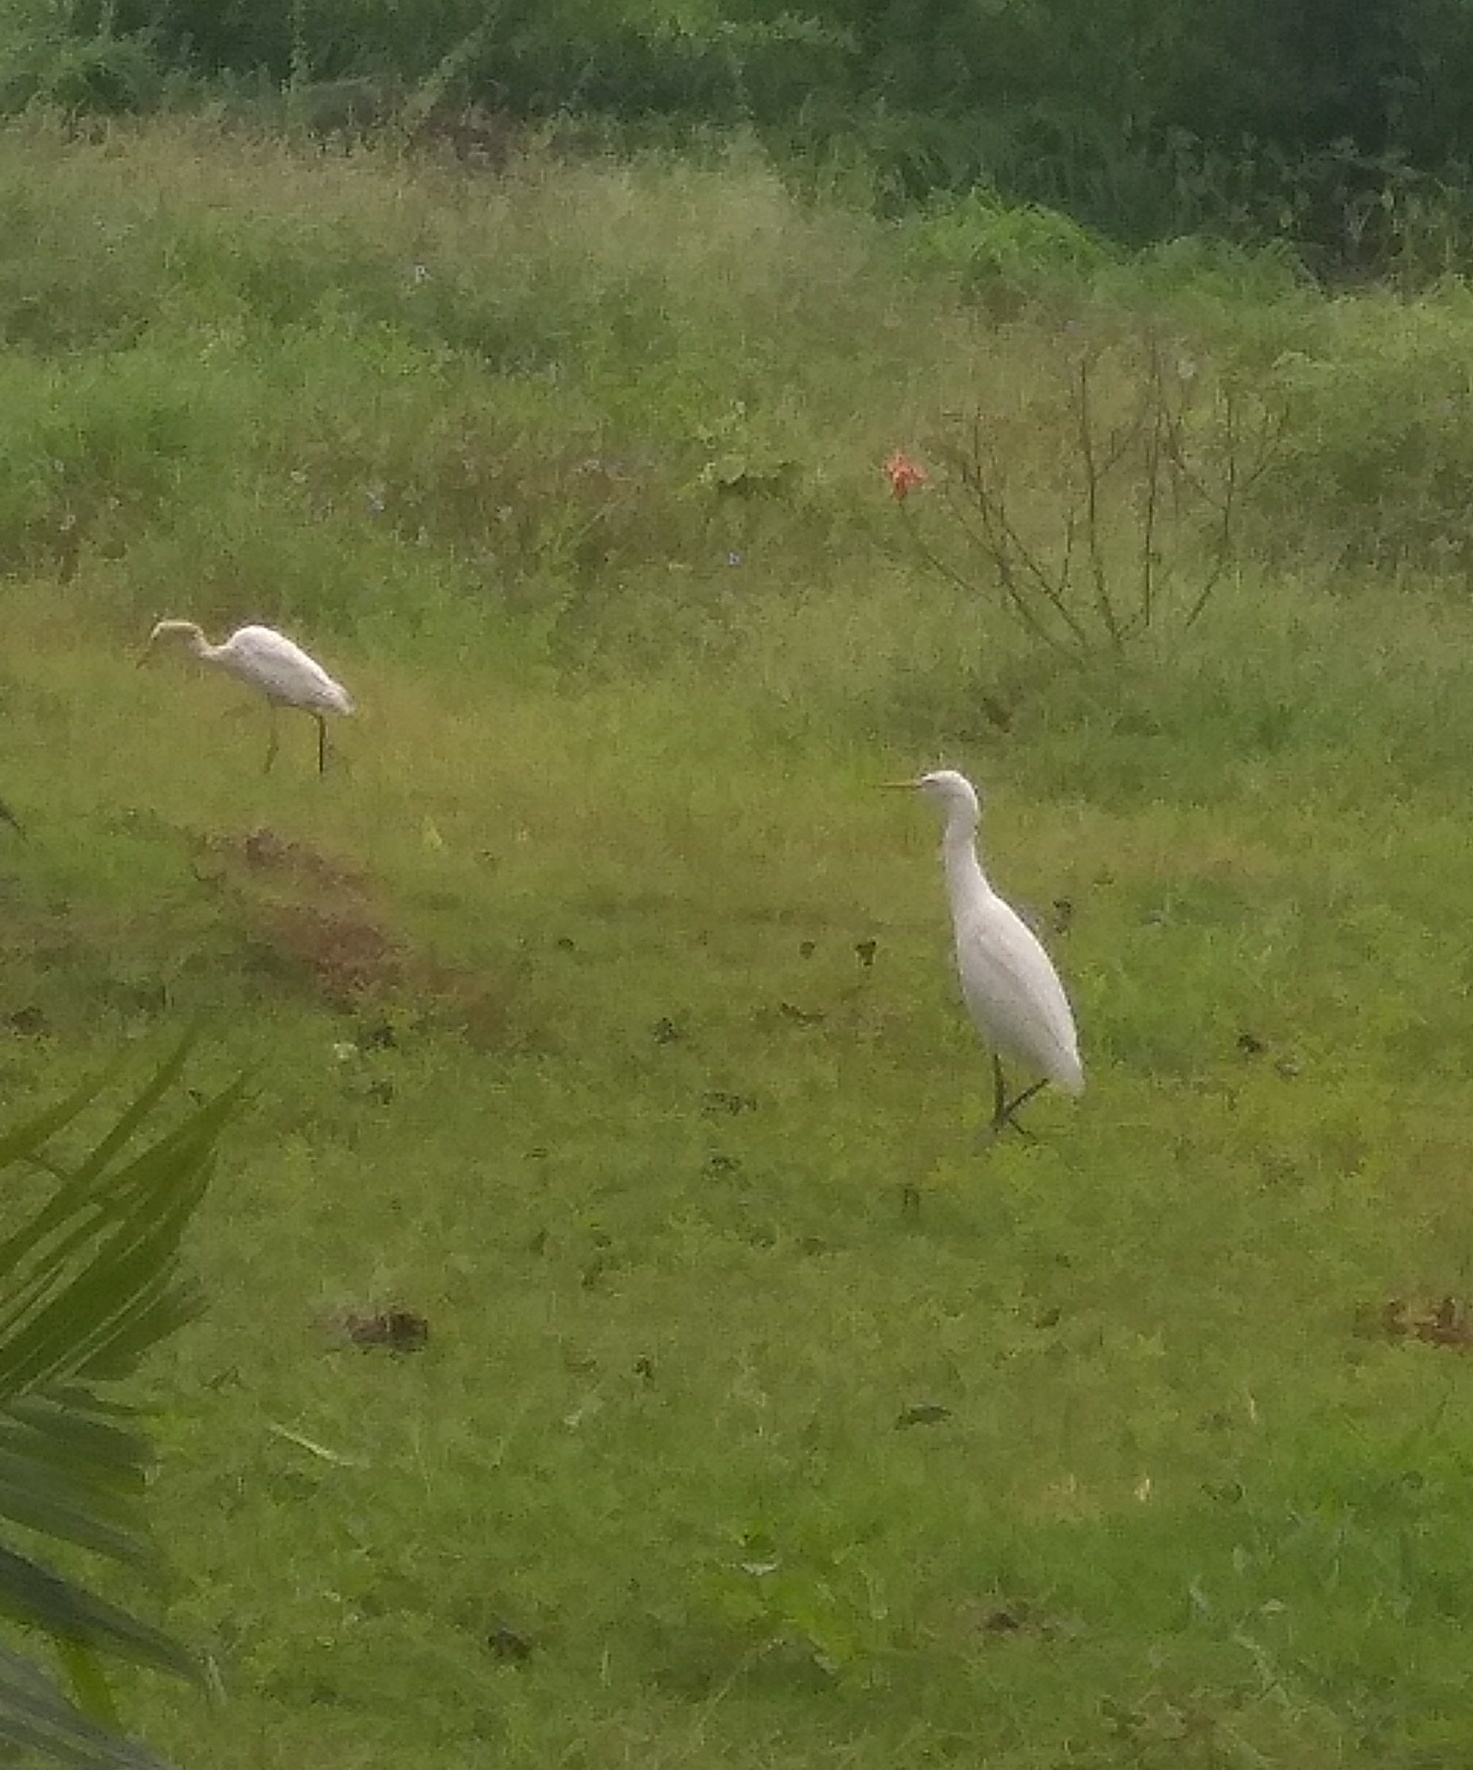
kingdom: Animalia
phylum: Chordata
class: Aves
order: Pelecaniformes
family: Ardeidae
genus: Bubulcus
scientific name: Bubulcus coromandus
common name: Eastern cattle egret
